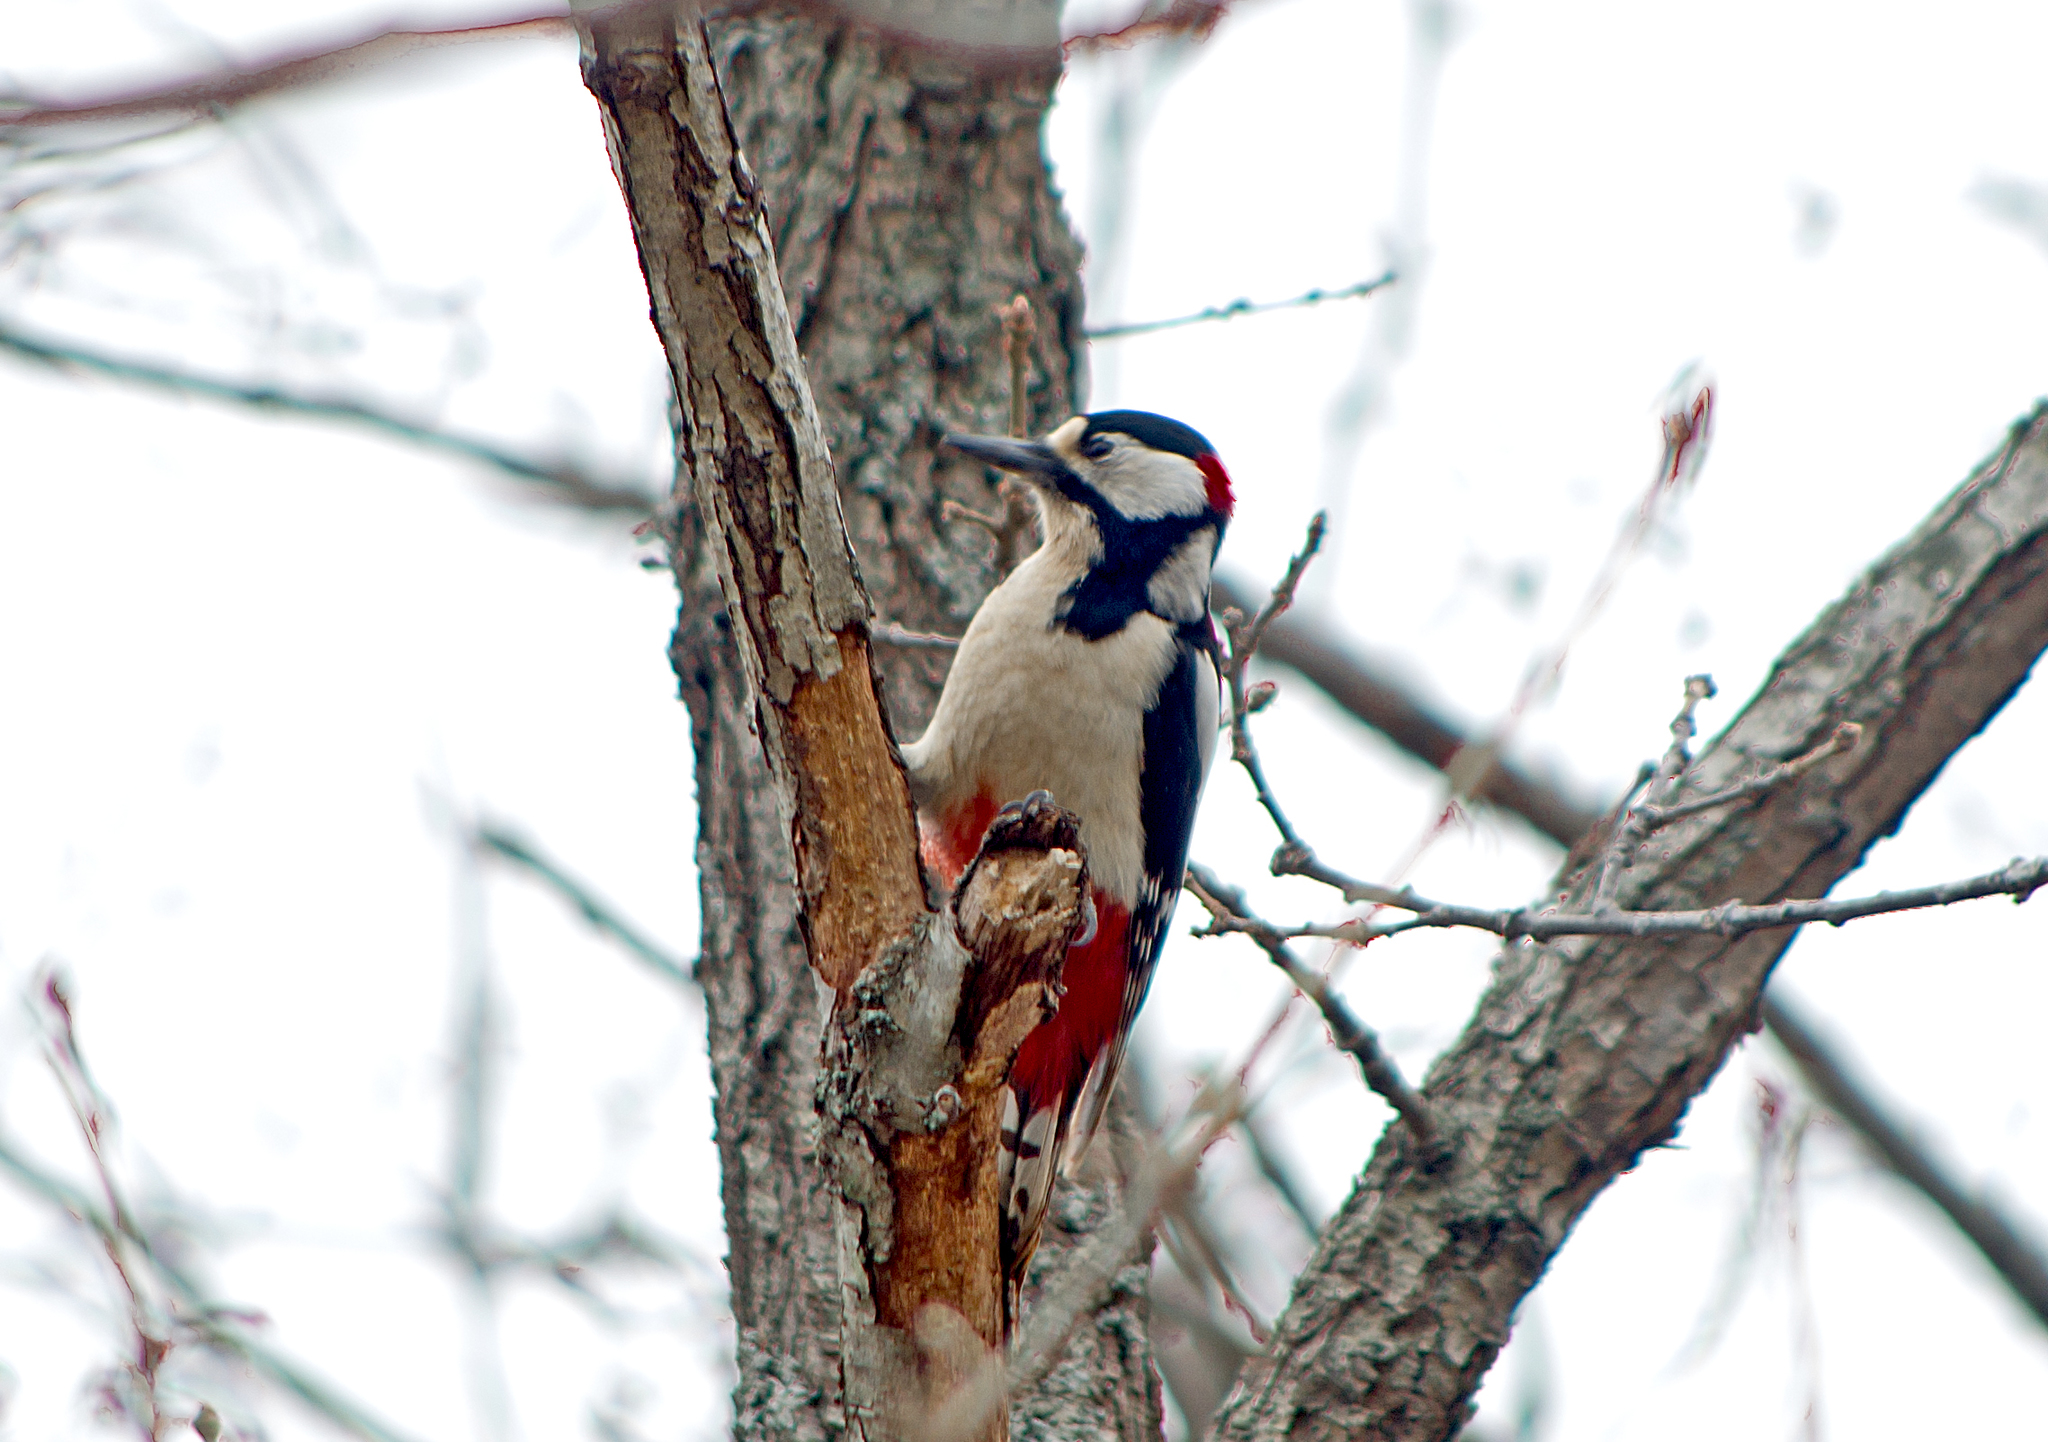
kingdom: Animalia
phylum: Chordata
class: Aves
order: Piciformes
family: Picidae
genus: Dendrocopos
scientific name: Dendrocopos major
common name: Great spotted woodpecker
